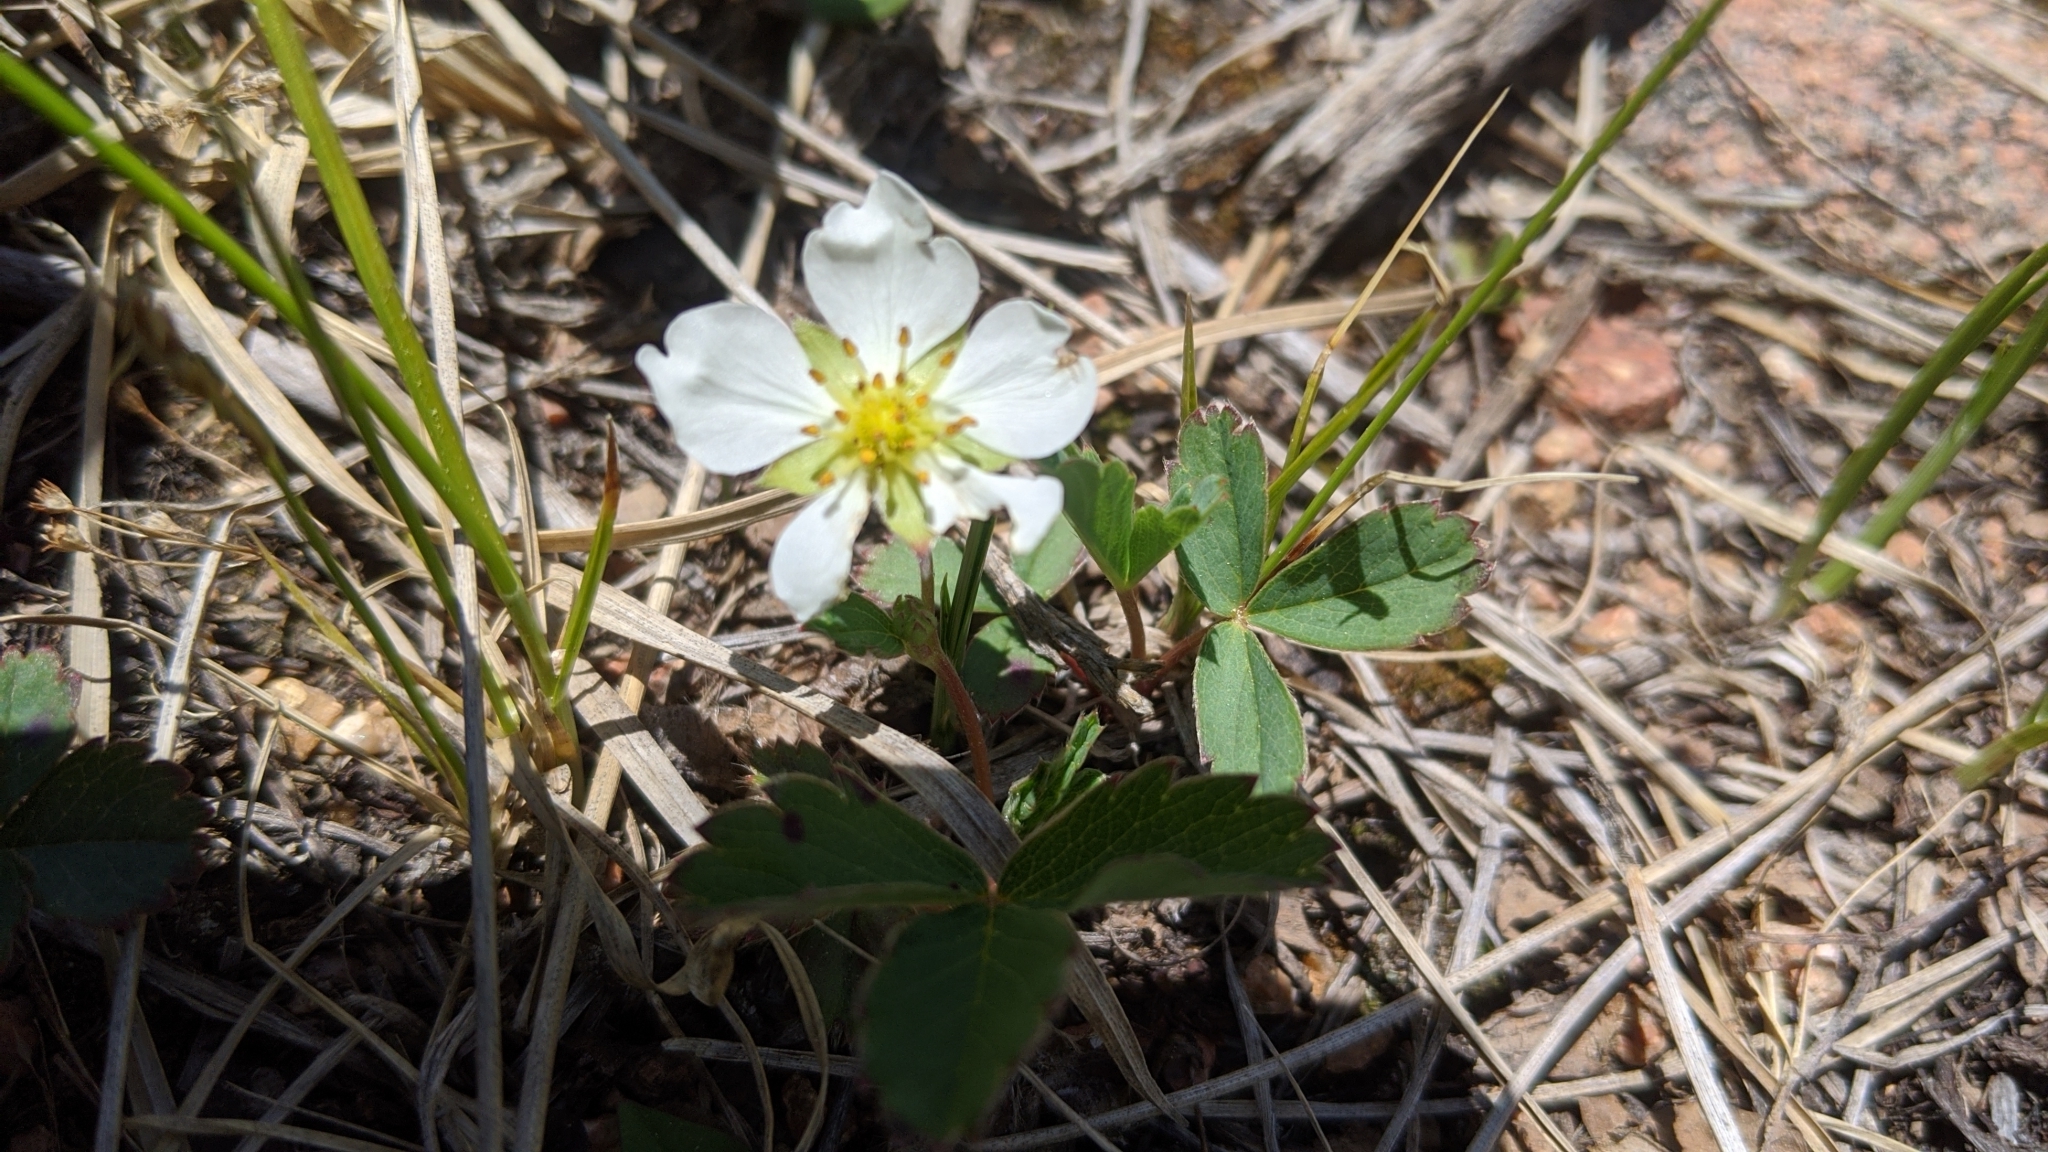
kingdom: Plantae
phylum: Tracheophyta
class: Magnoliopsida
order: Rosales
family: Rosaceae
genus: Fragaria
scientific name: Fragaria vesca
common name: Wild strawberry
